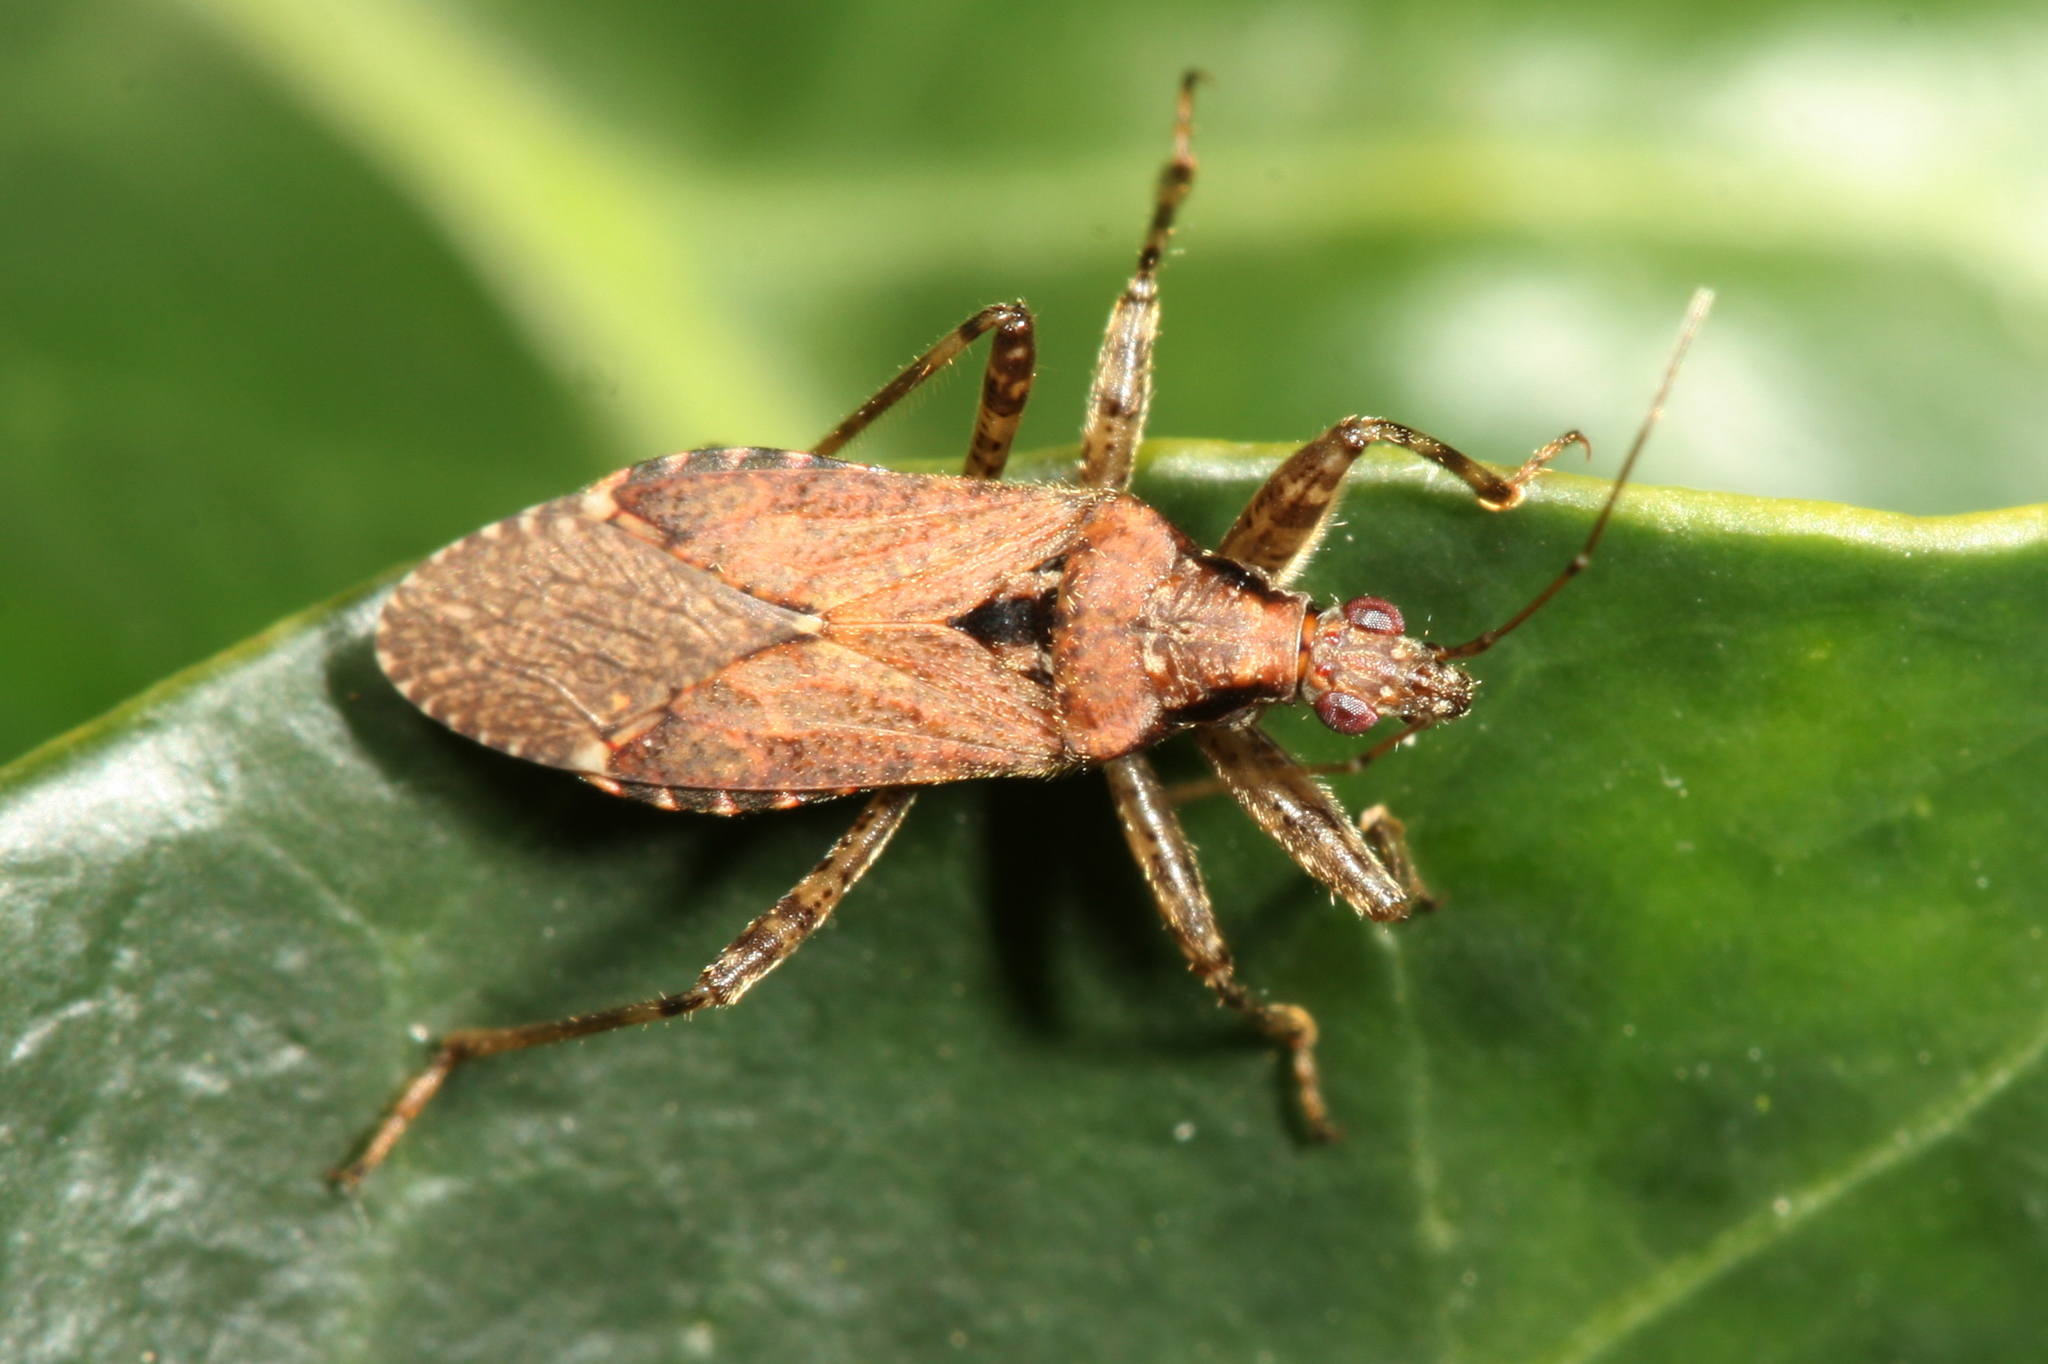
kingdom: Animalia
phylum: Arthropoda
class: Insecta
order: Hemiptera
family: Nabidae
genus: Himacerus
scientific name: Himacerus mirmicoides
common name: Ant damsel bug
